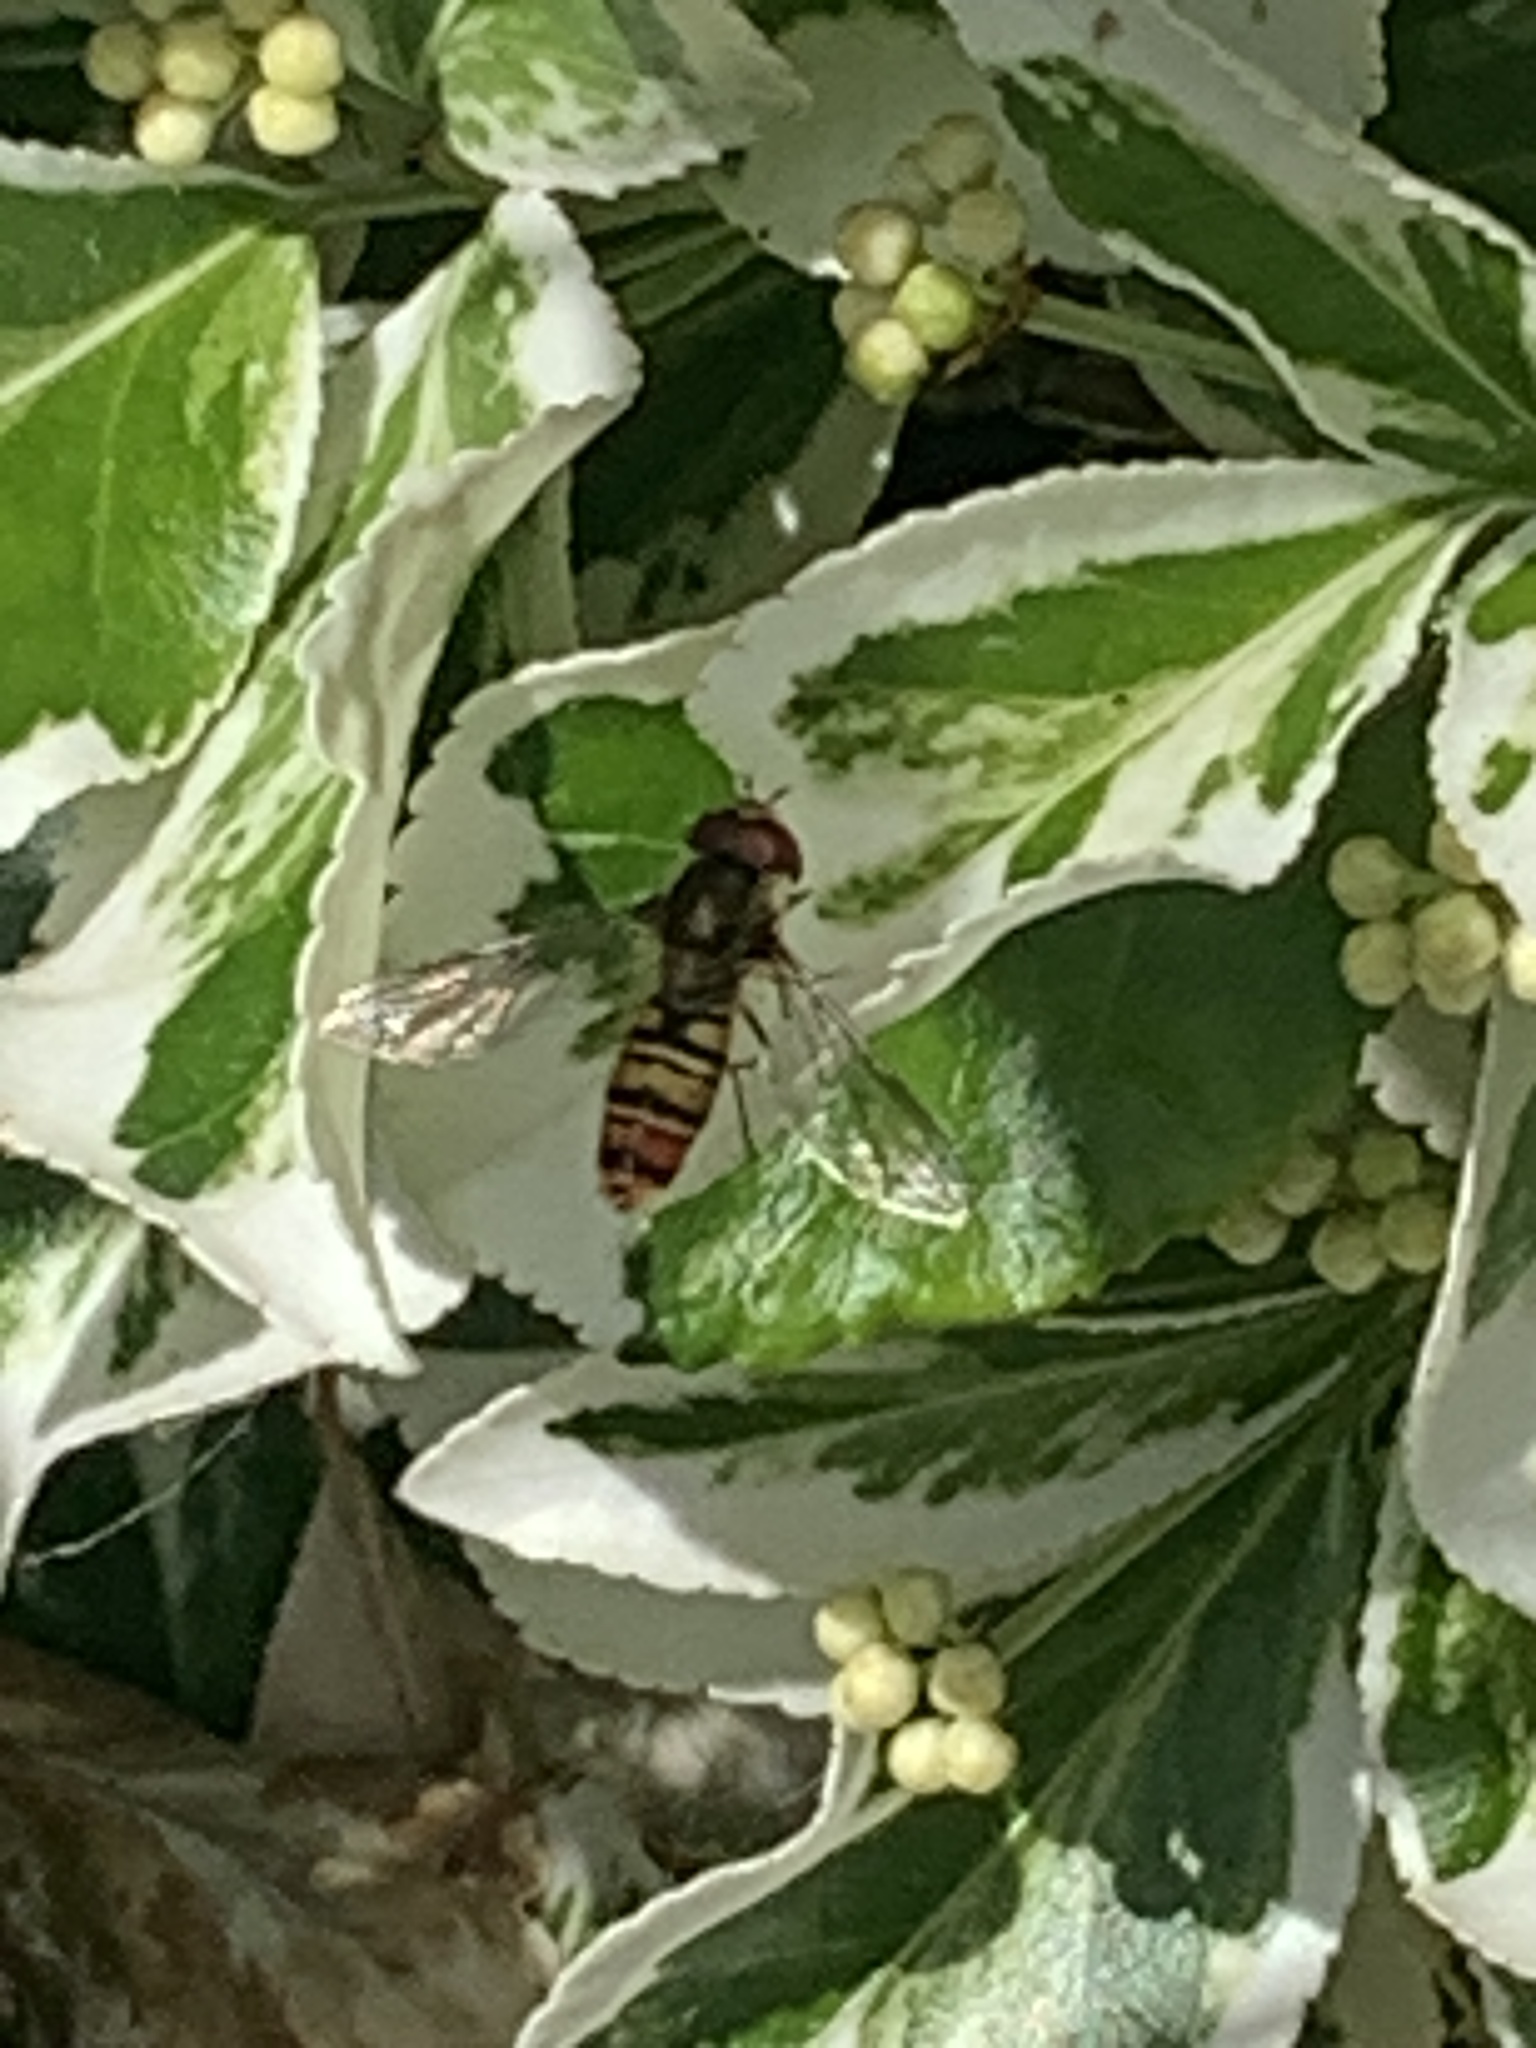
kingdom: Animalia
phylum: Arthropoda
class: Insecta
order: Diptera
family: Syrphidae
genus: Episyrphus
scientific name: Episyrphus balteatus
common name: Marmalade hoverfly
